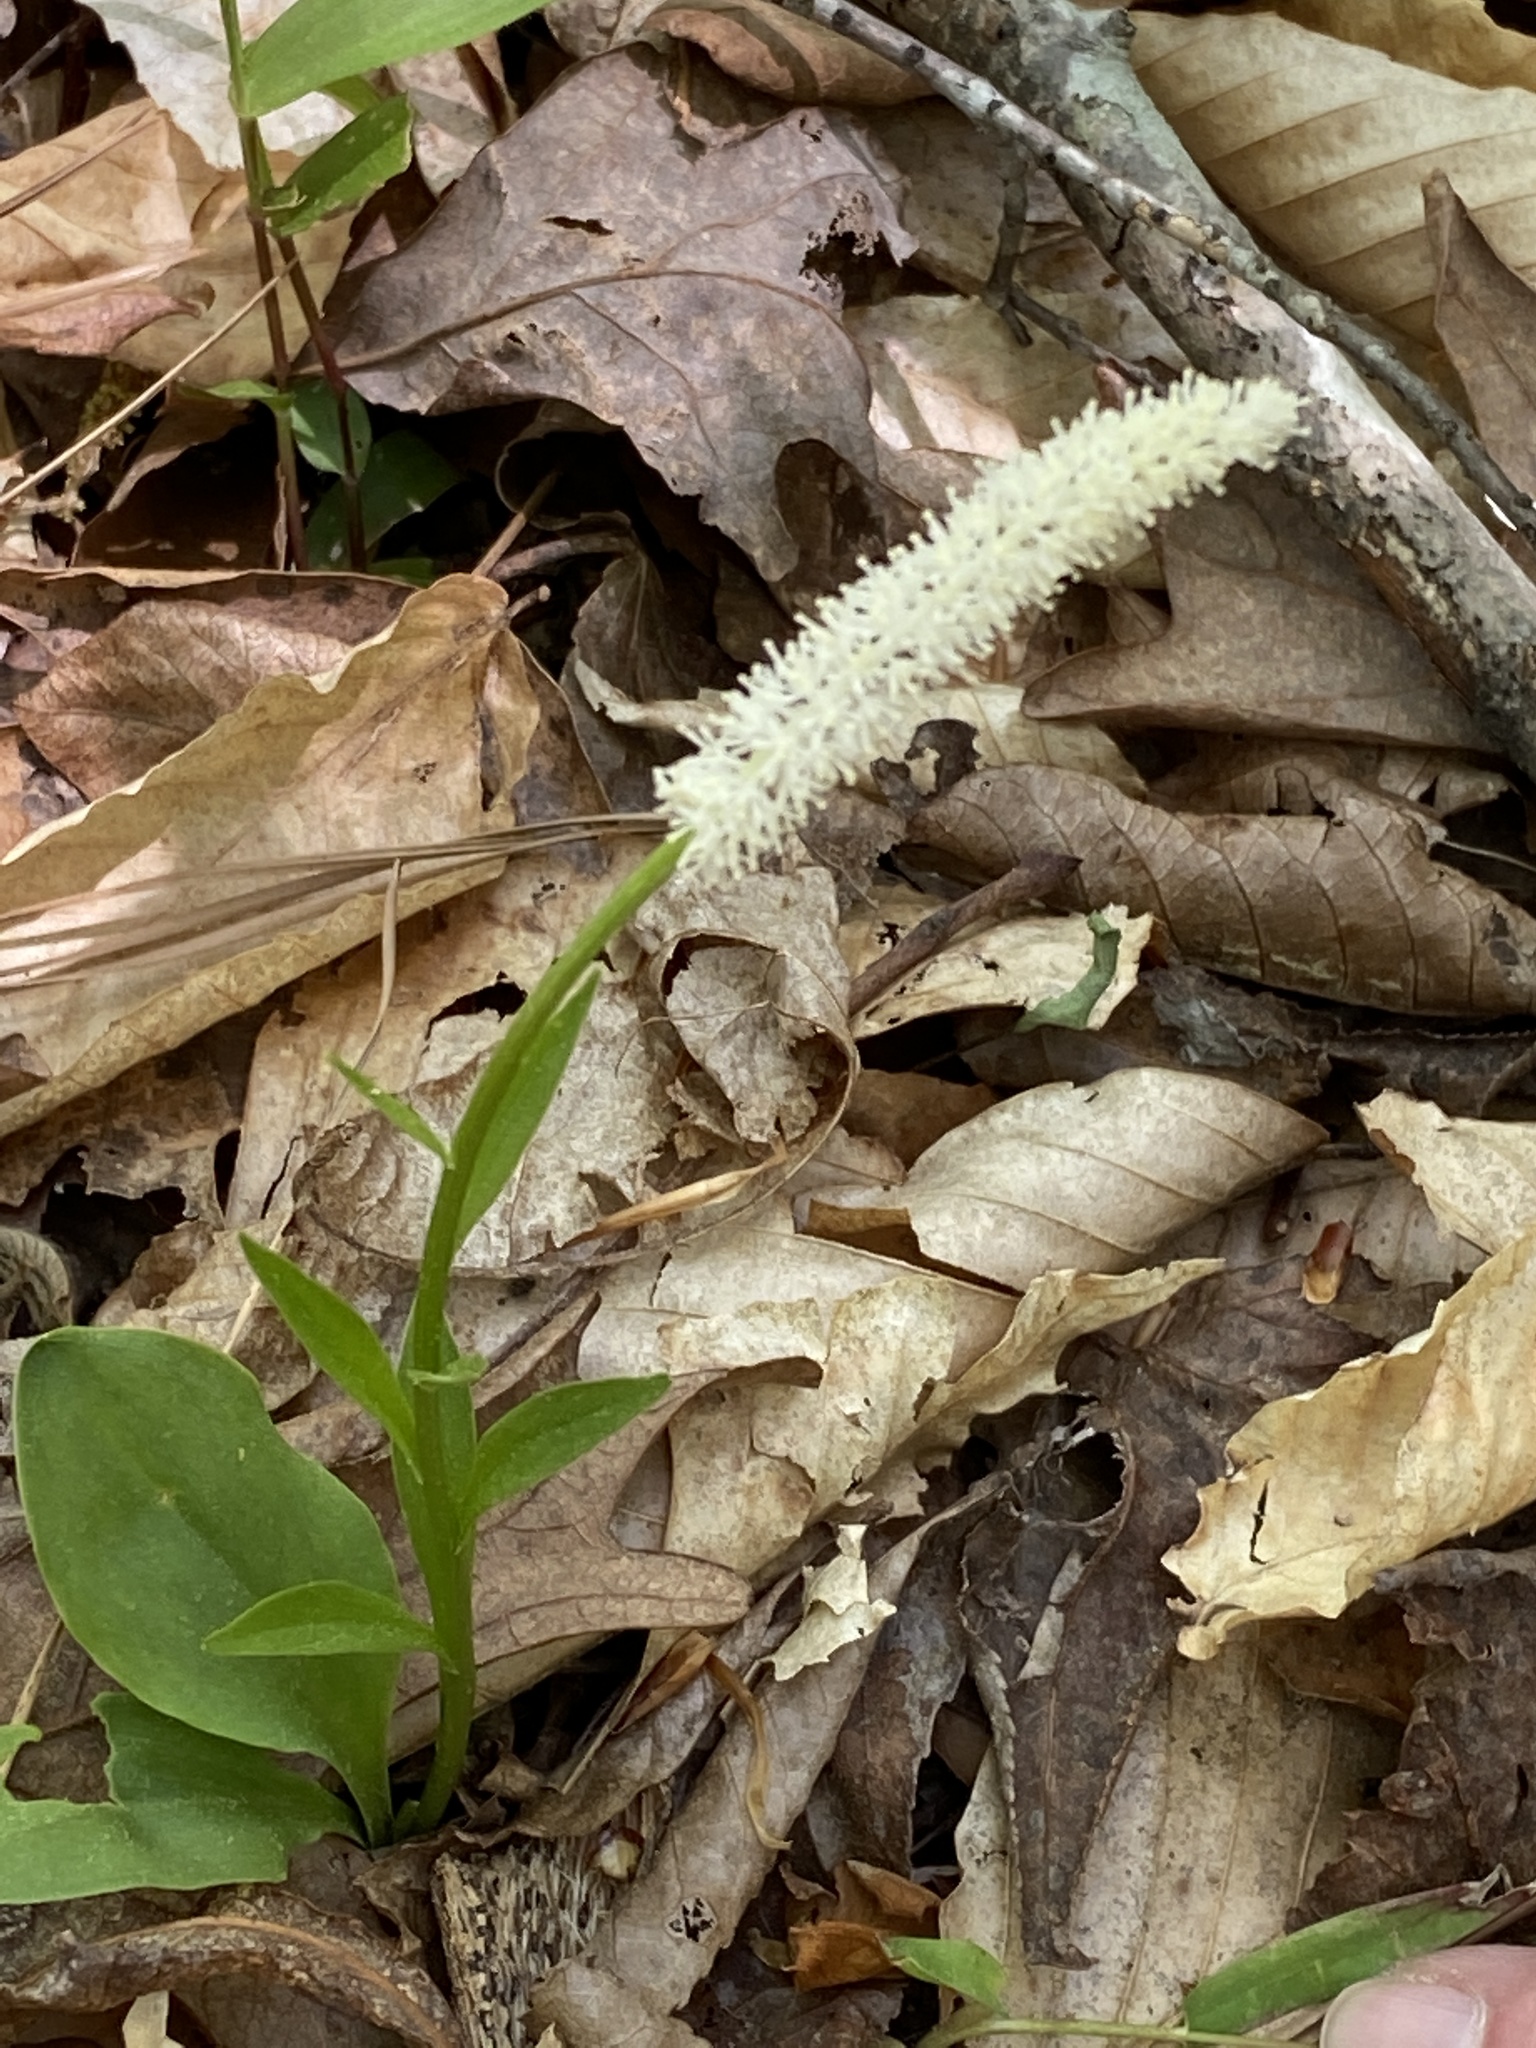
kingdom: Plantae
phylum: Tracheophyta
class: Liliopsida
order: Liliales
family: Melanthiaceae
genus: Chamaelirium
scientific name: Chamaelirium luteum
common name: Fairy-wand
